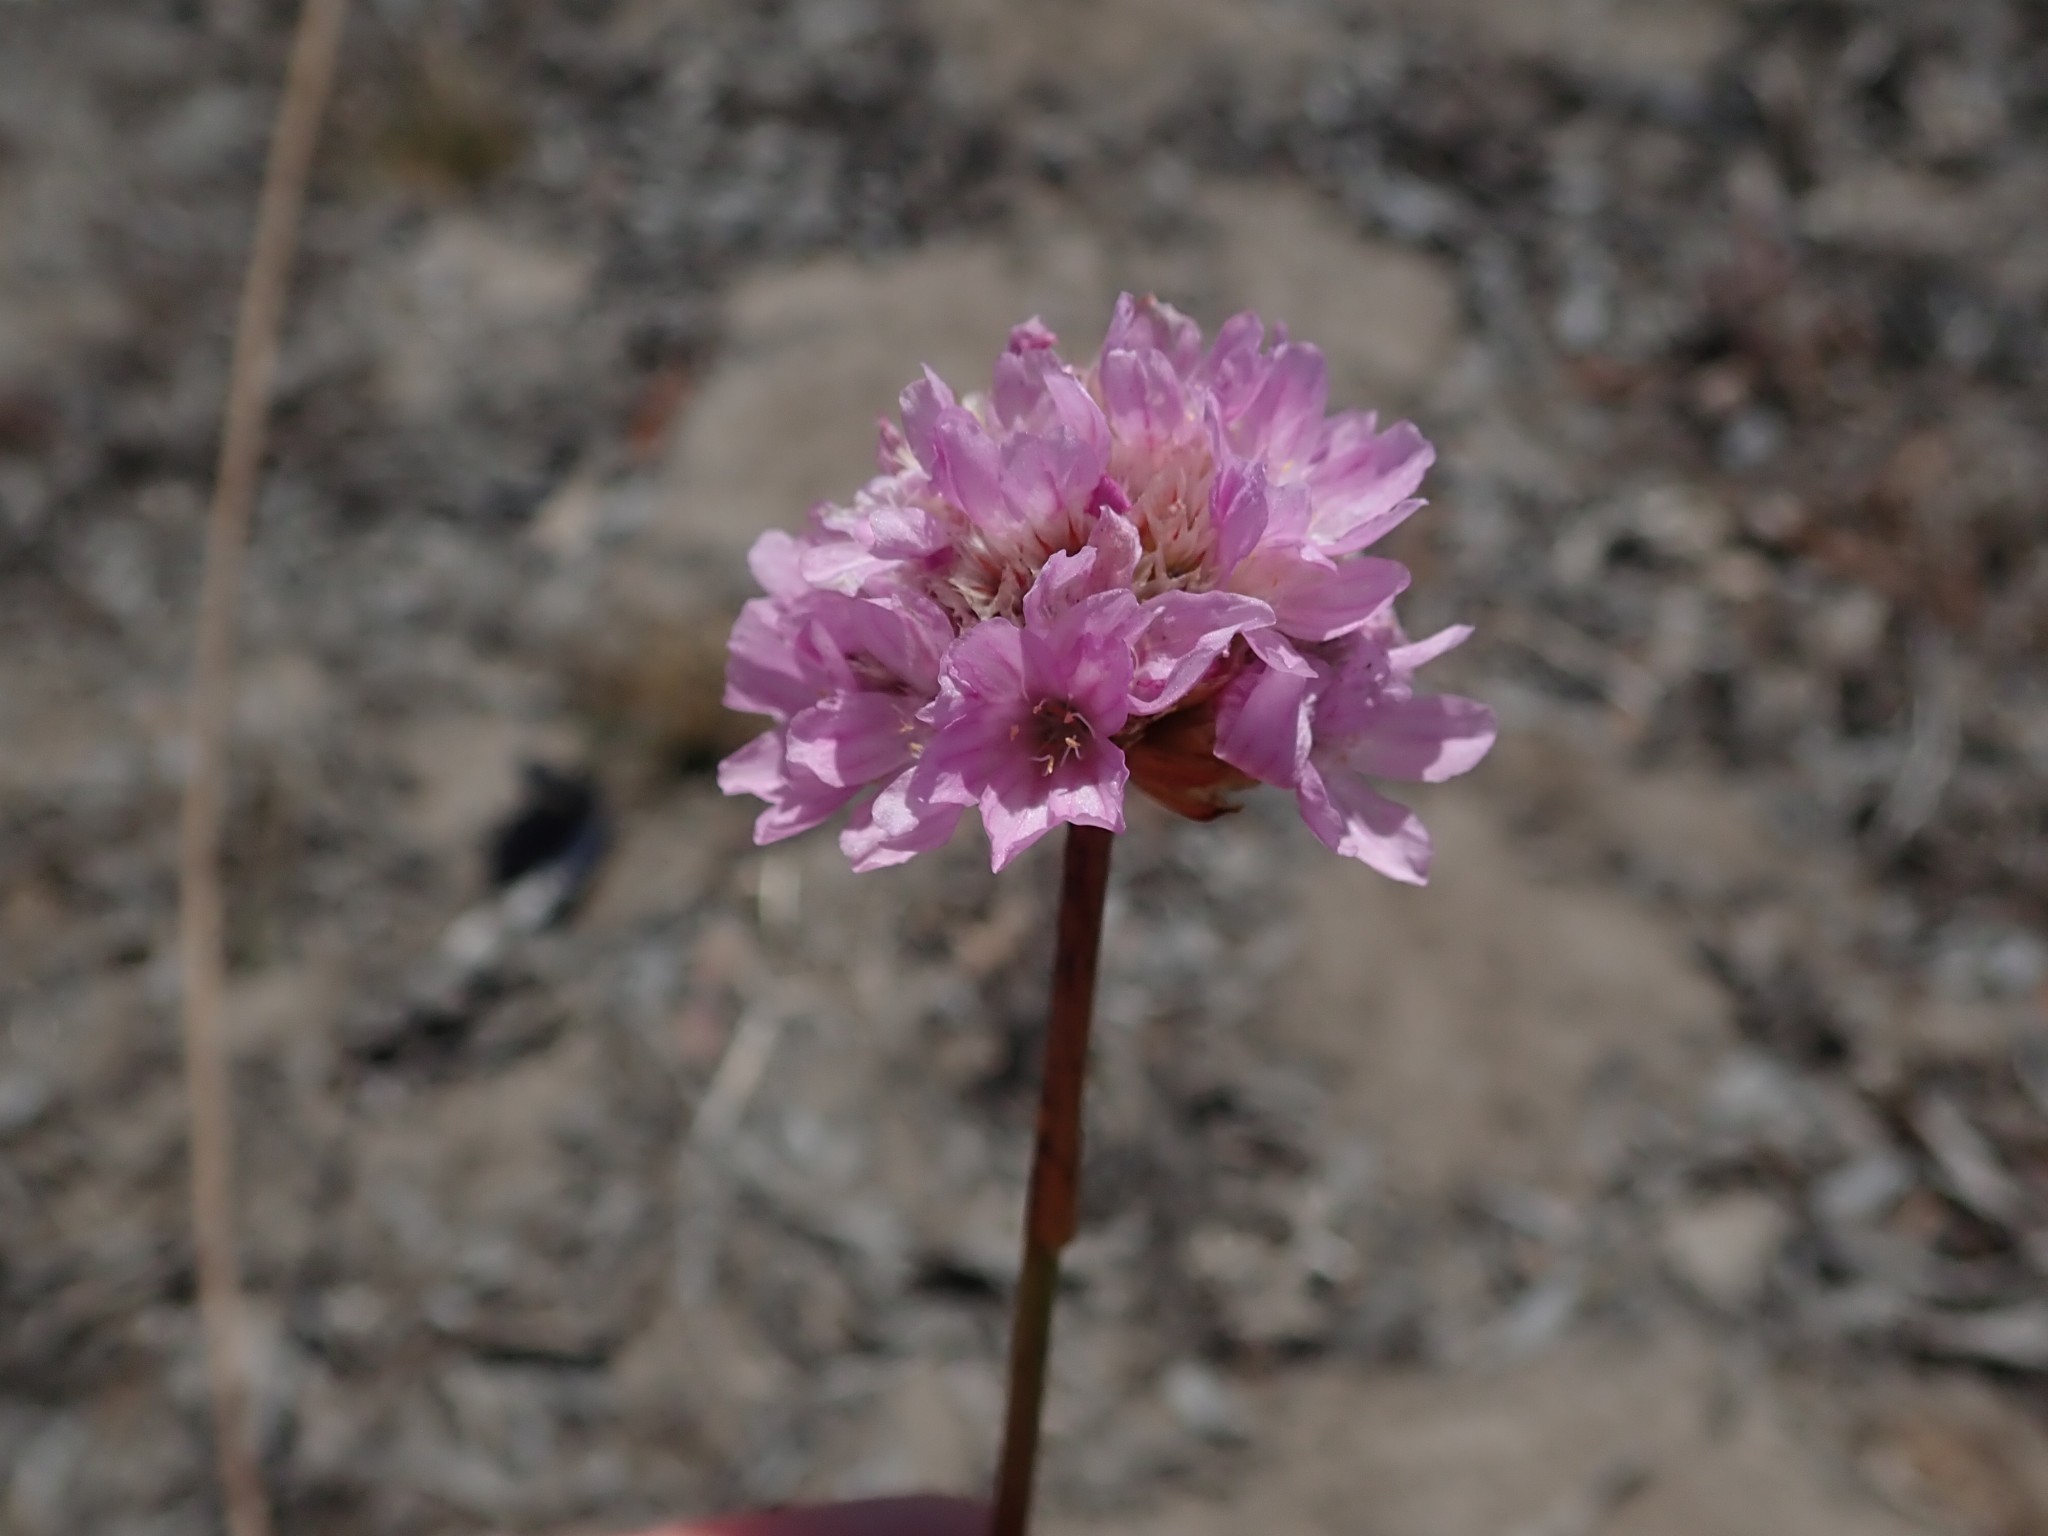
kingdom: Plantae
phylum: Tracheophyta
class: Magnoliopsida
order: Caryophyllales
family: Plumbaginaceae
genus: Armeria
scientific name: Armeria maritima
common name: Thrift
